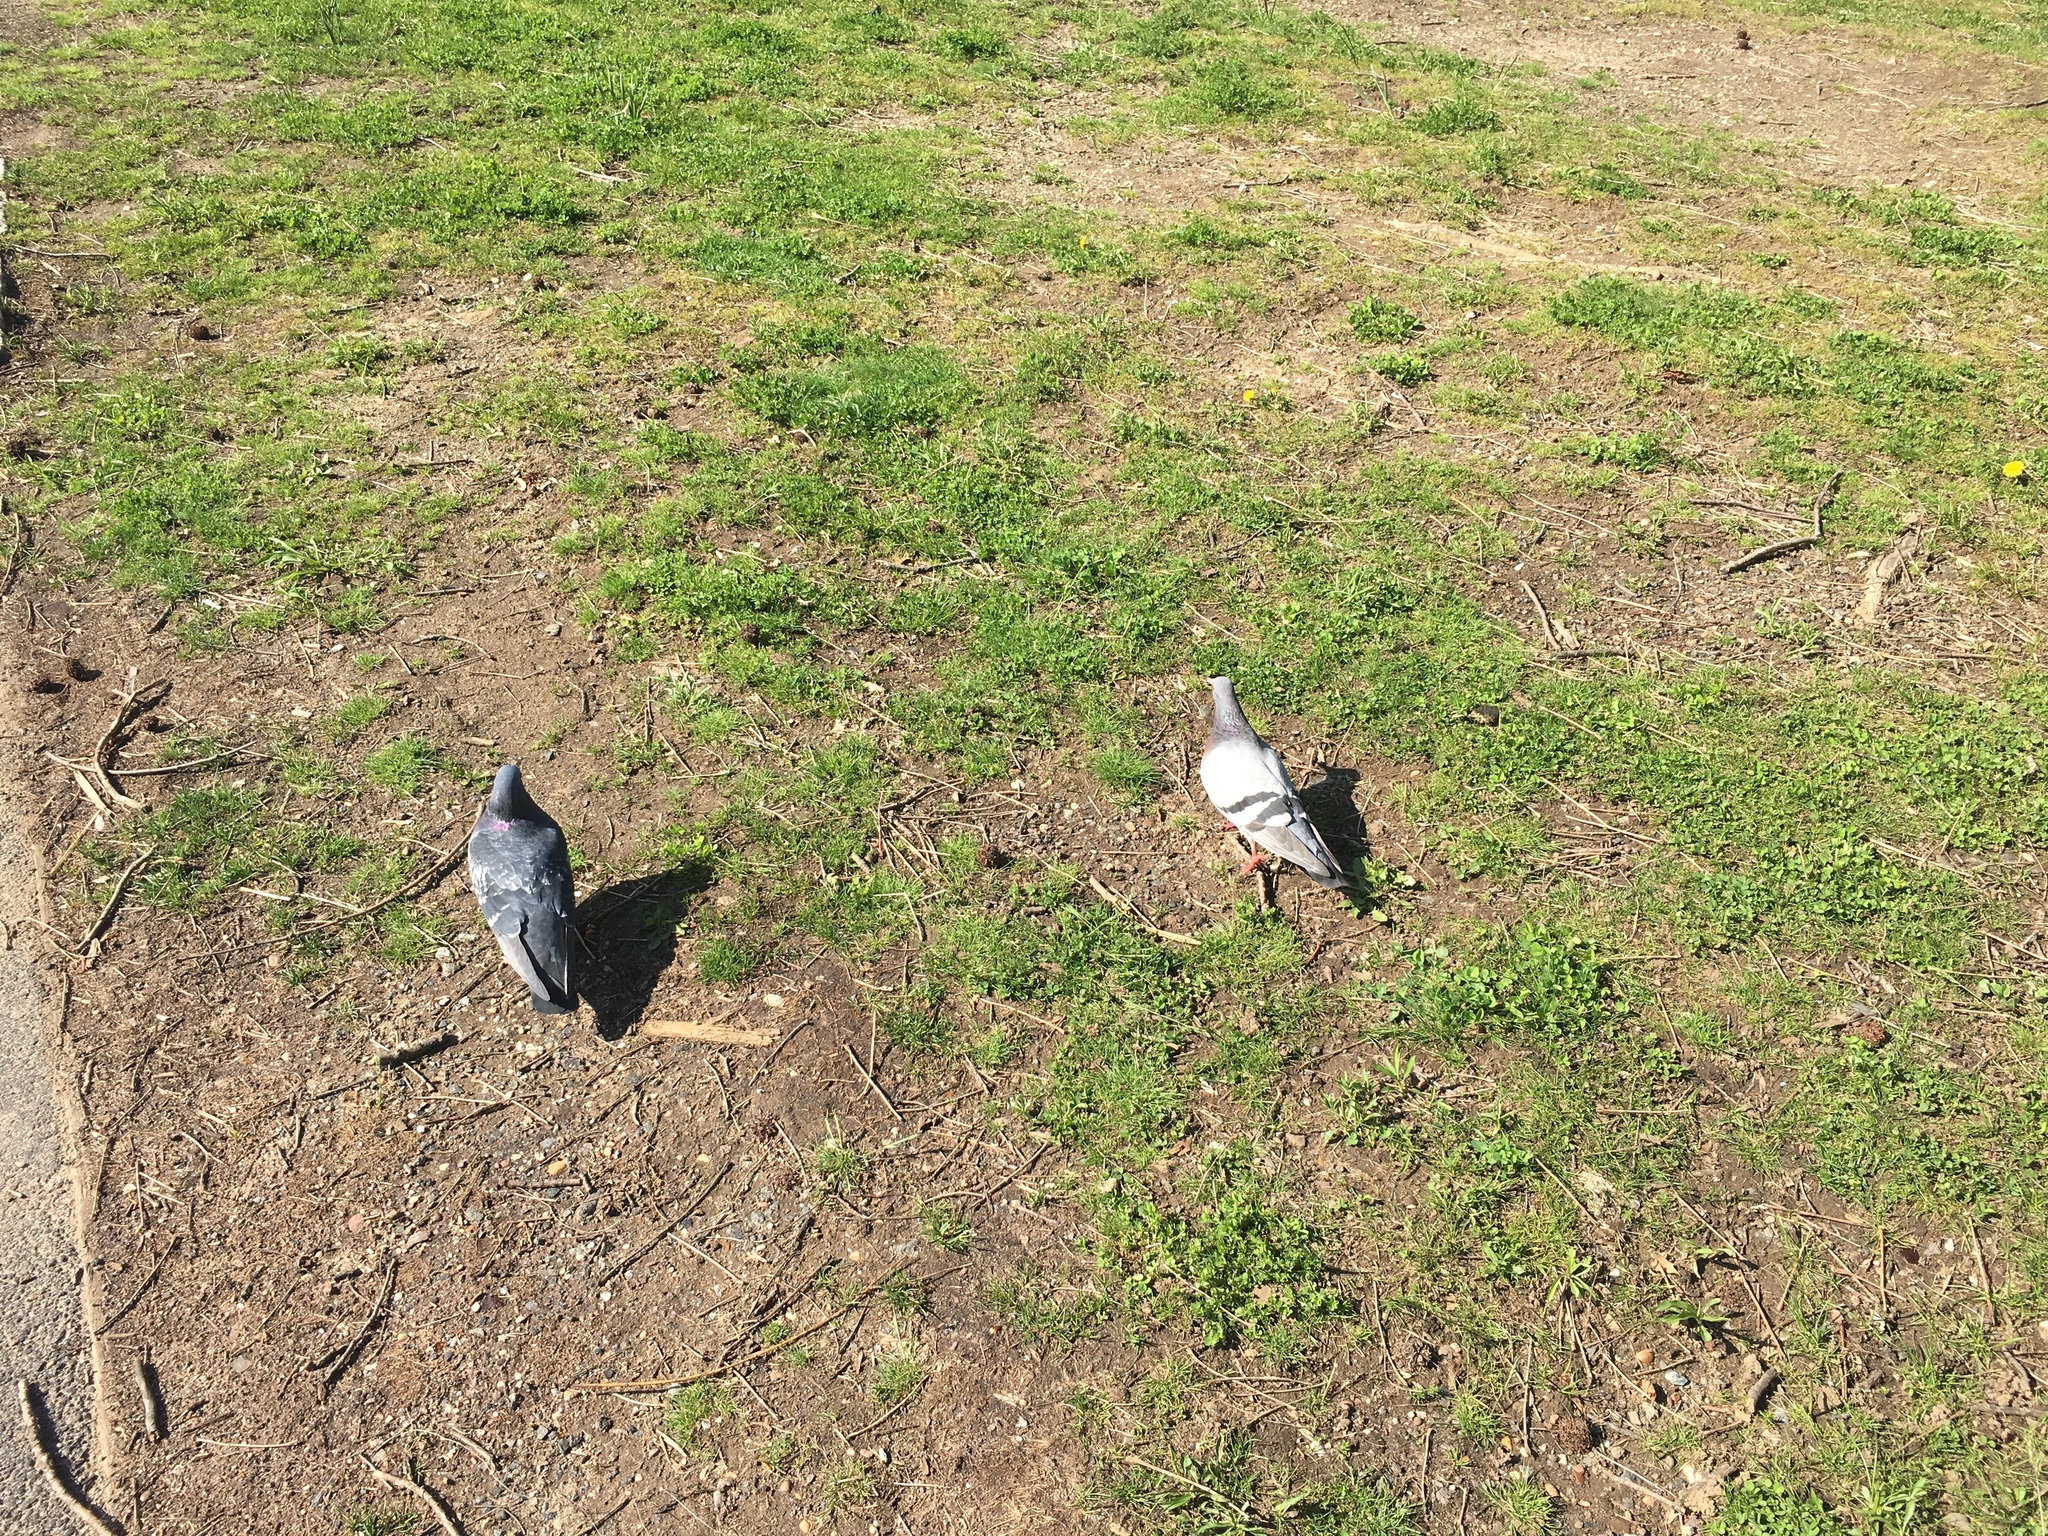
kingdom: Animalia
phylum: Chordata
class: Aves
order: Columbiformes
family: Columbidae
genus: Columba
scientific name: Columba livia
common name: Rock pigeon
